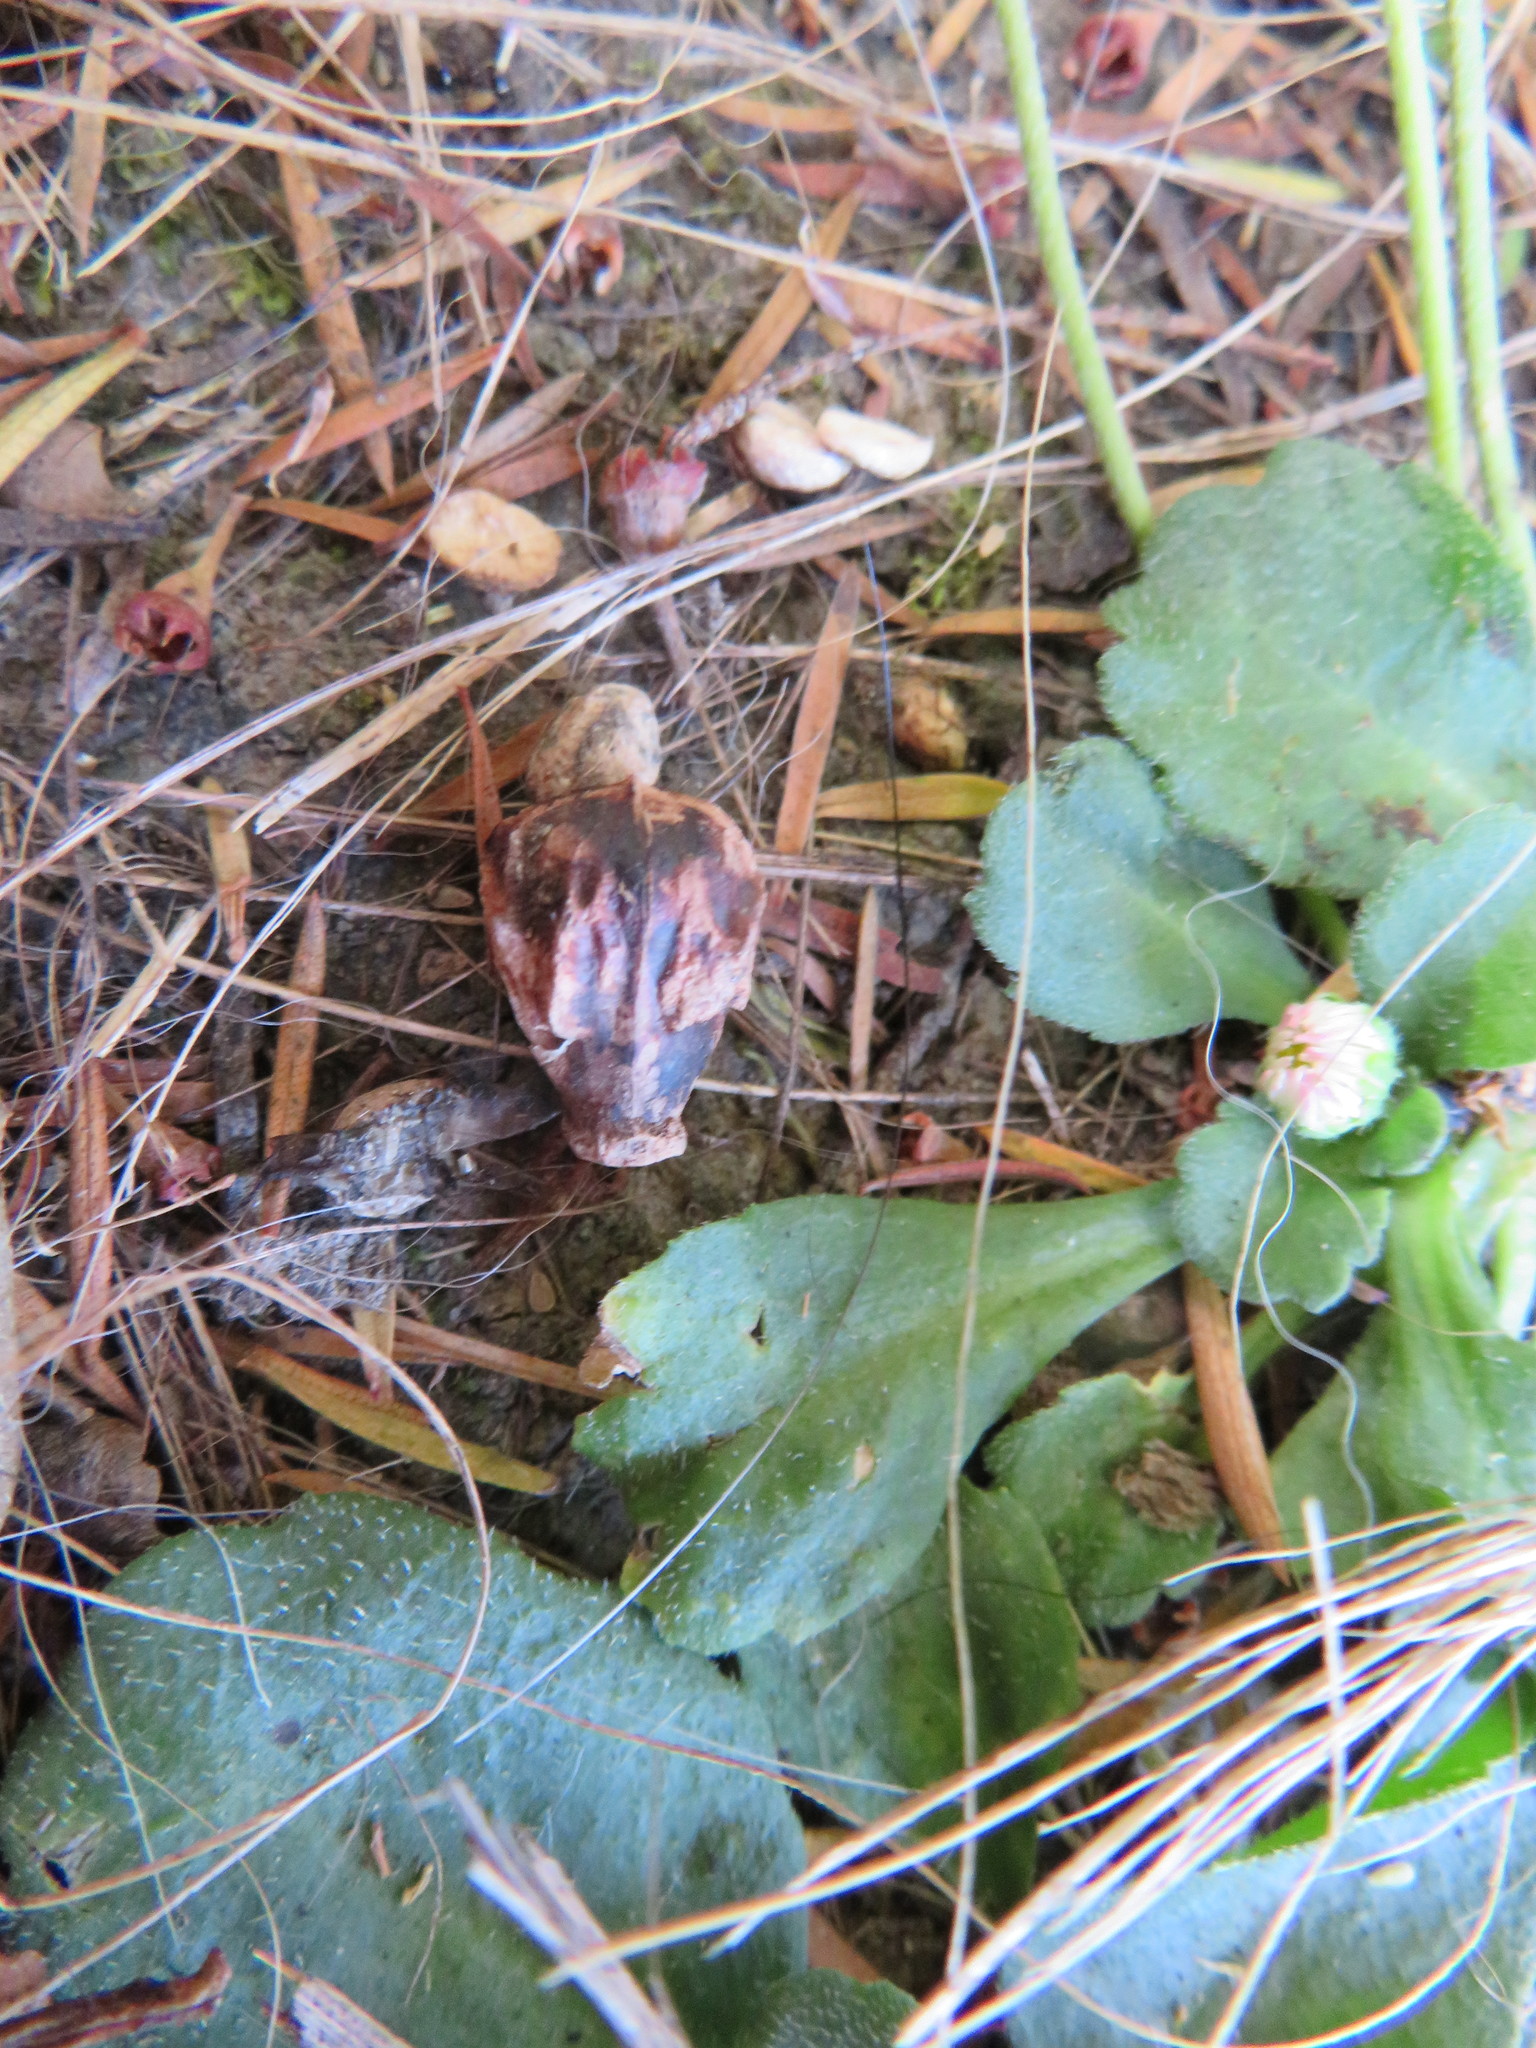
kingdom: Plantae
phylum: Tracheophyta
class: Magnoliopsida
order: Lamiales
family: Lamiaceae
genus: Vitex
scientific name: Vitex lucens
